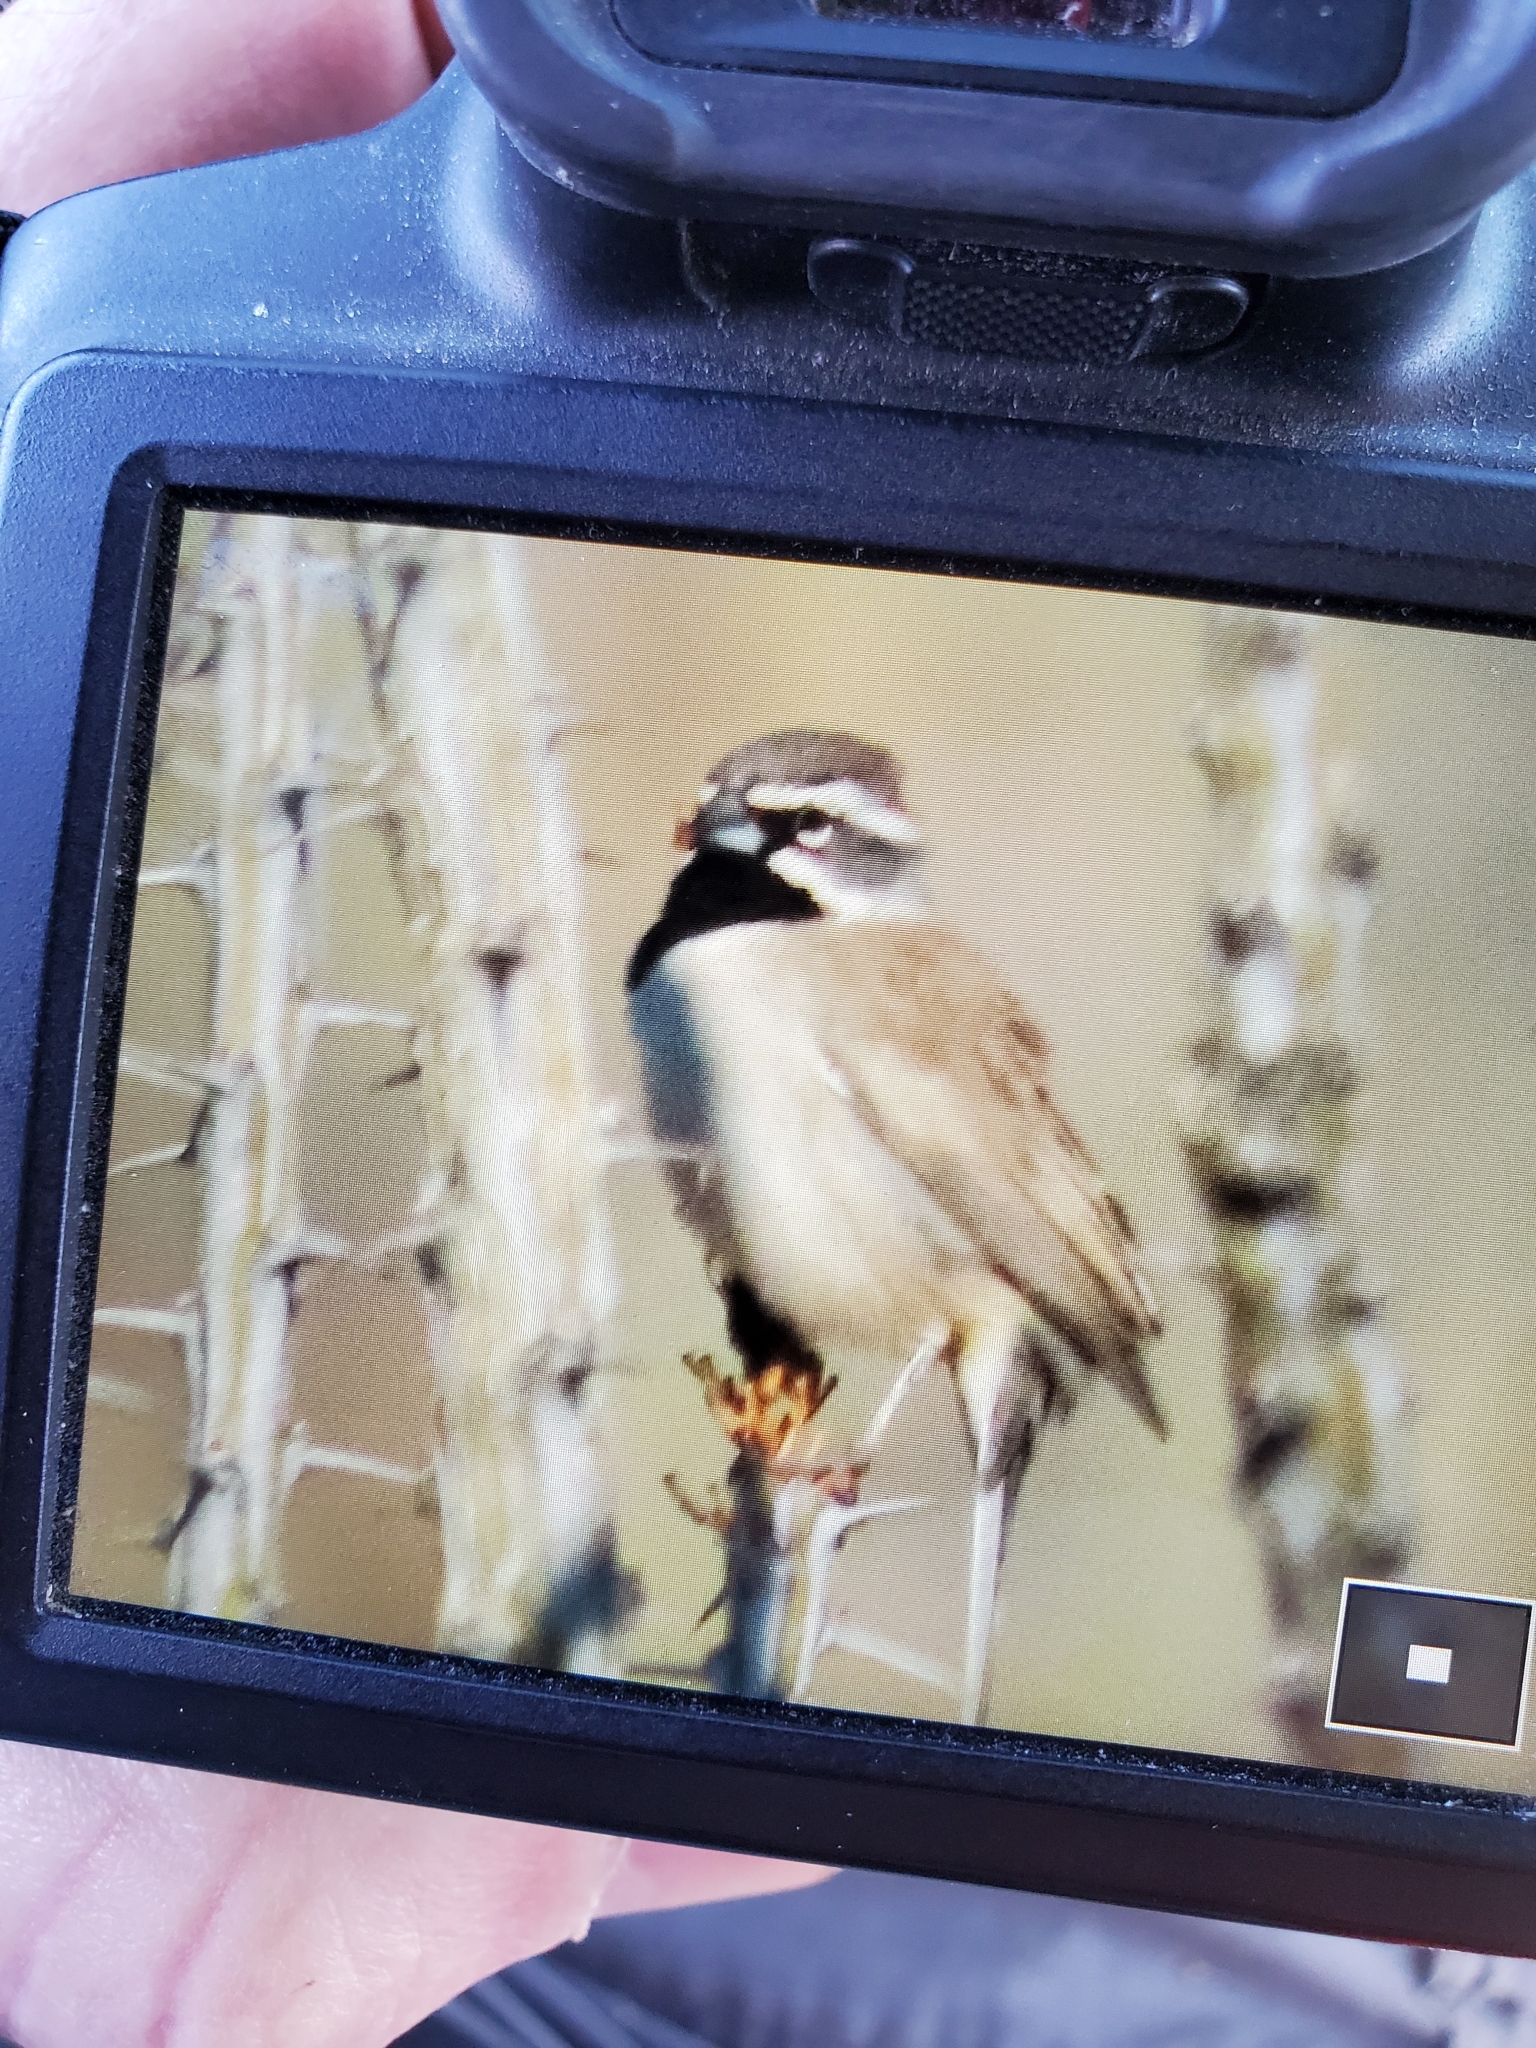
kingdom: Animalia
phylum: Chordata
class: Aves
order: Passeriformes
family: Passerellidae
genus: Amphispiza
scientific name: Amphispiza bilineata
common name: Black-throated sparrow
